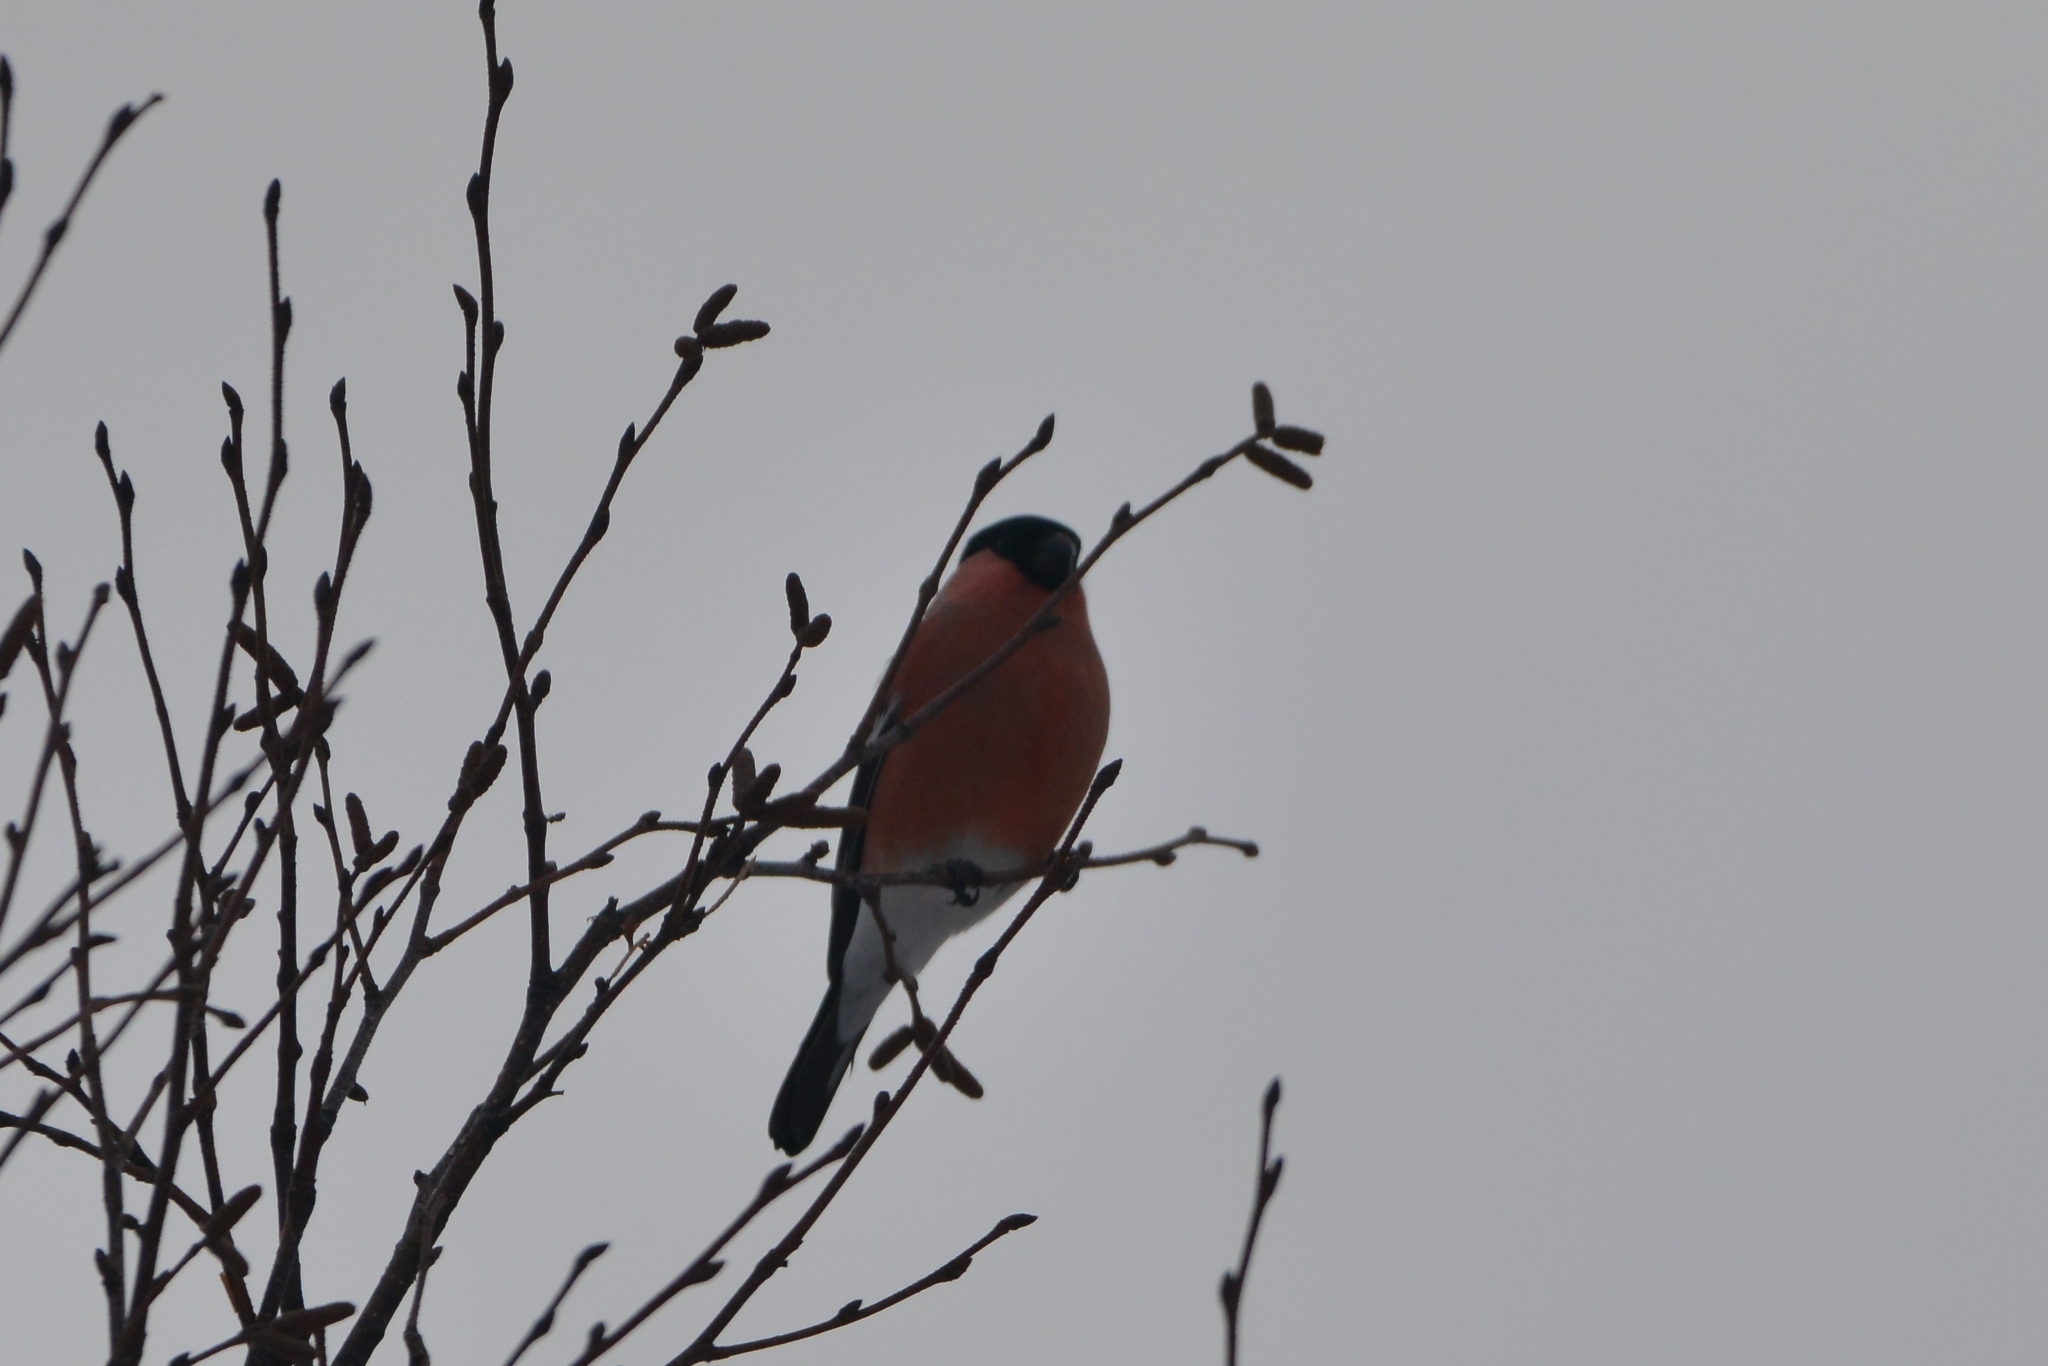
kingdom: Animalia
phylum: Chordata
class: Aves
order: Passeriformes
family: Fringillidae
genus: Pyrrhula
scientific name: Pyrrhula pyrrhula
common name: Eurasian bullfinch
